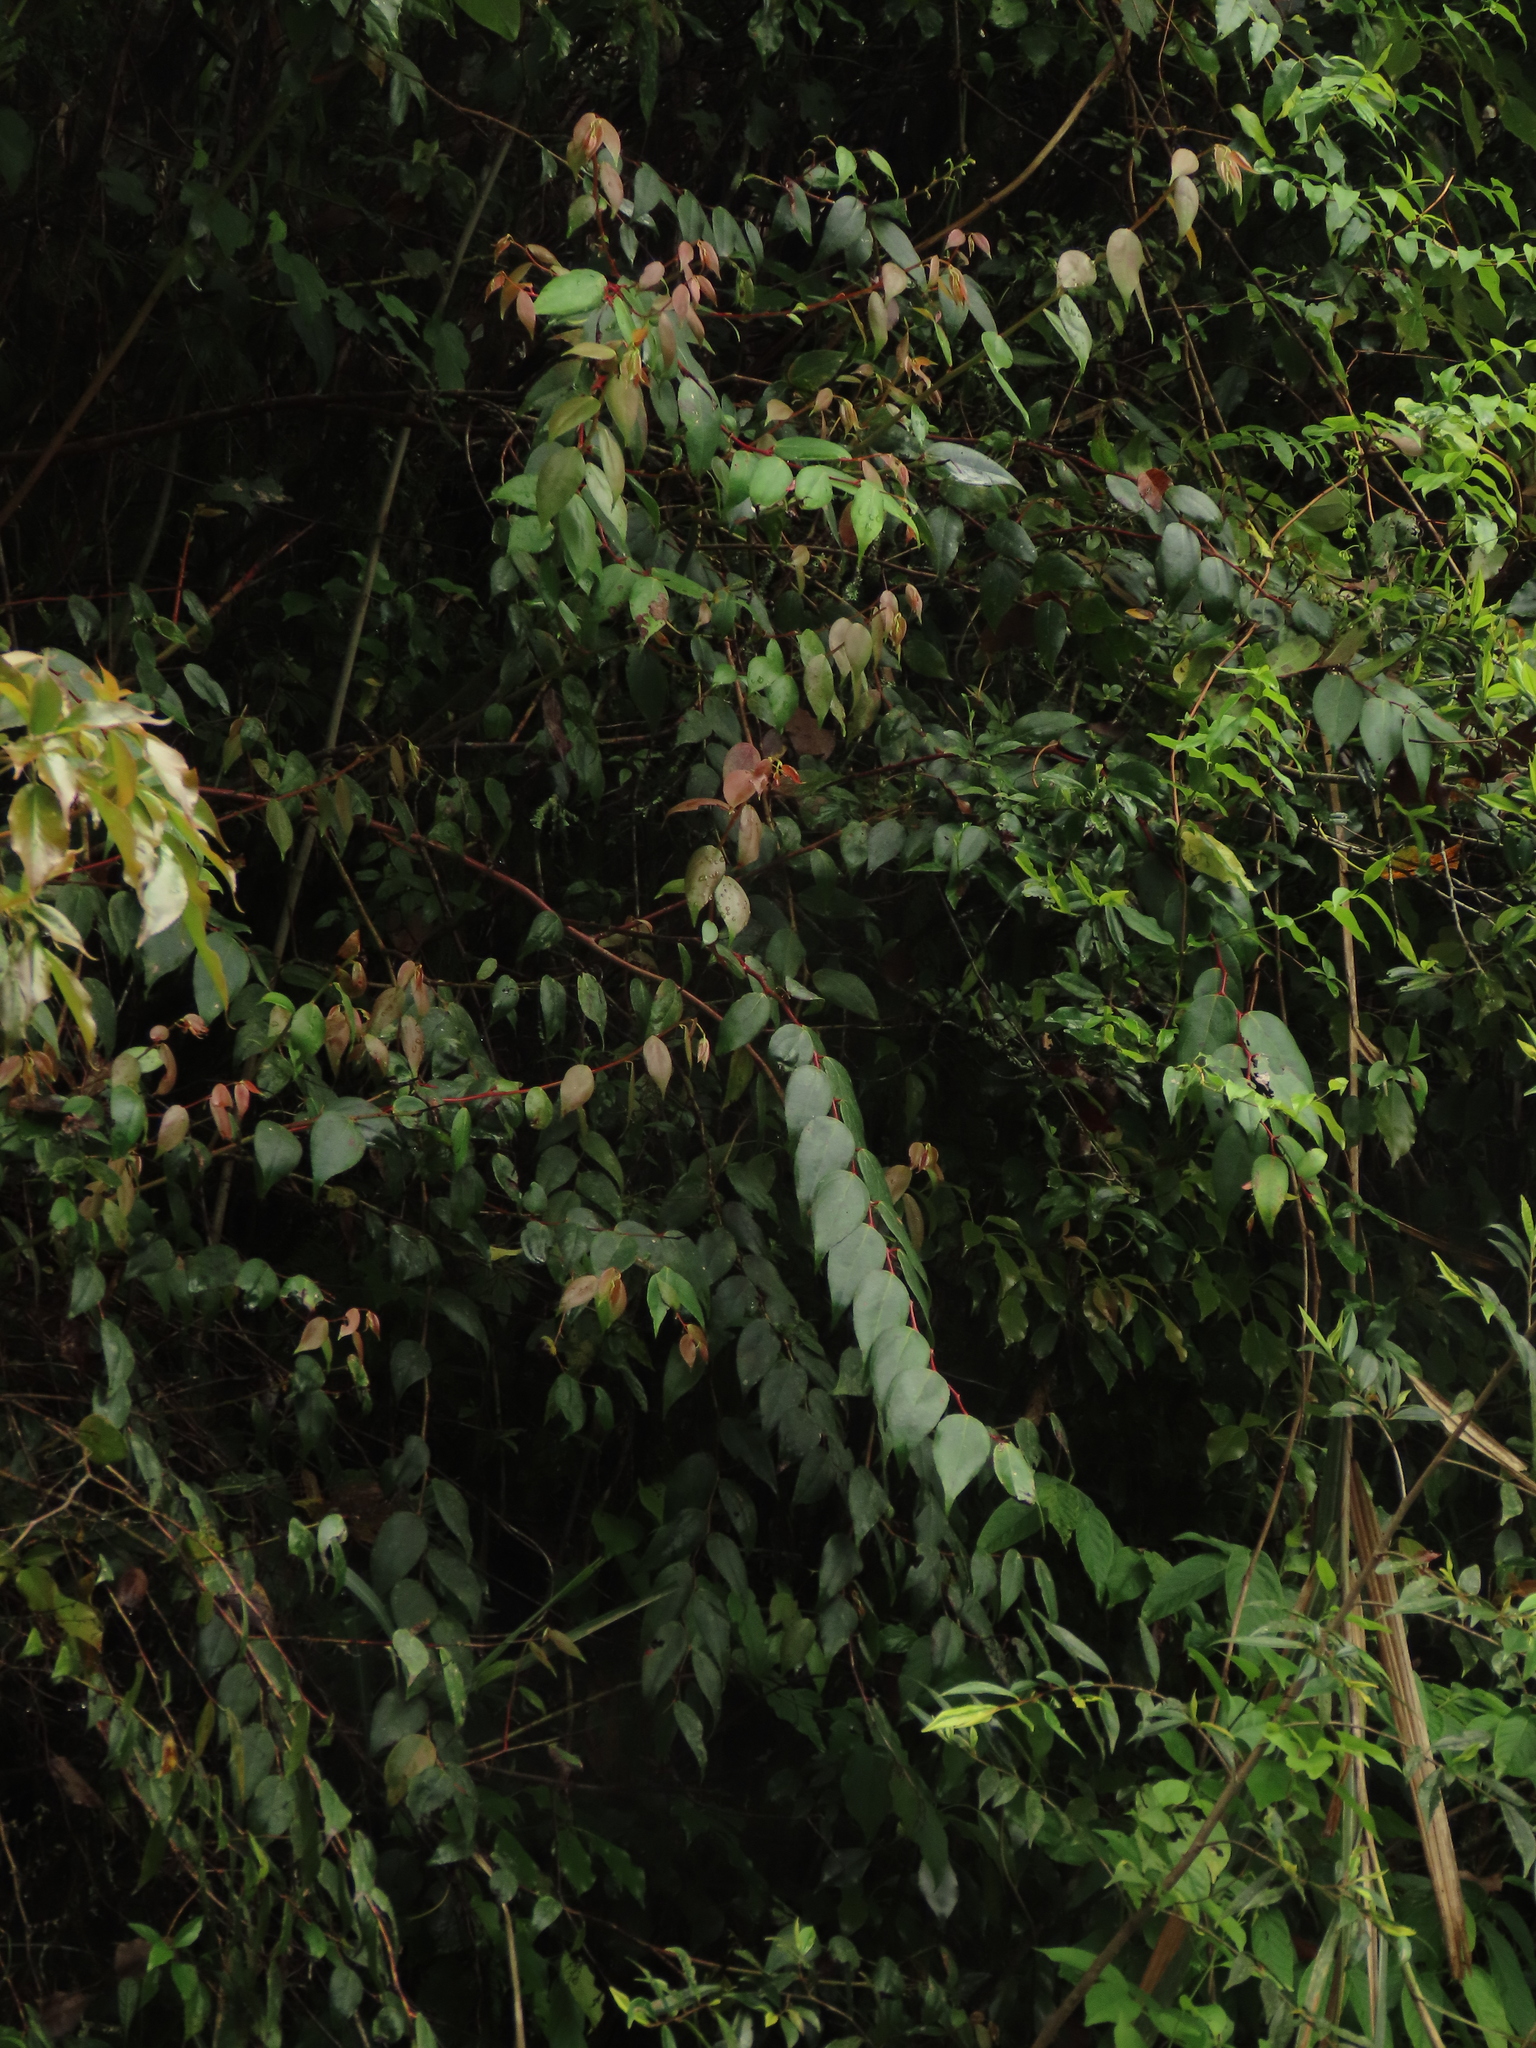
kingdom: Plantae
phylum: Tracheophyta
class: Magnoliopsida
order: Ericales
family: Ericaceae
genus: Gaultheria
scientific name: Gaultheria leucocarpa
